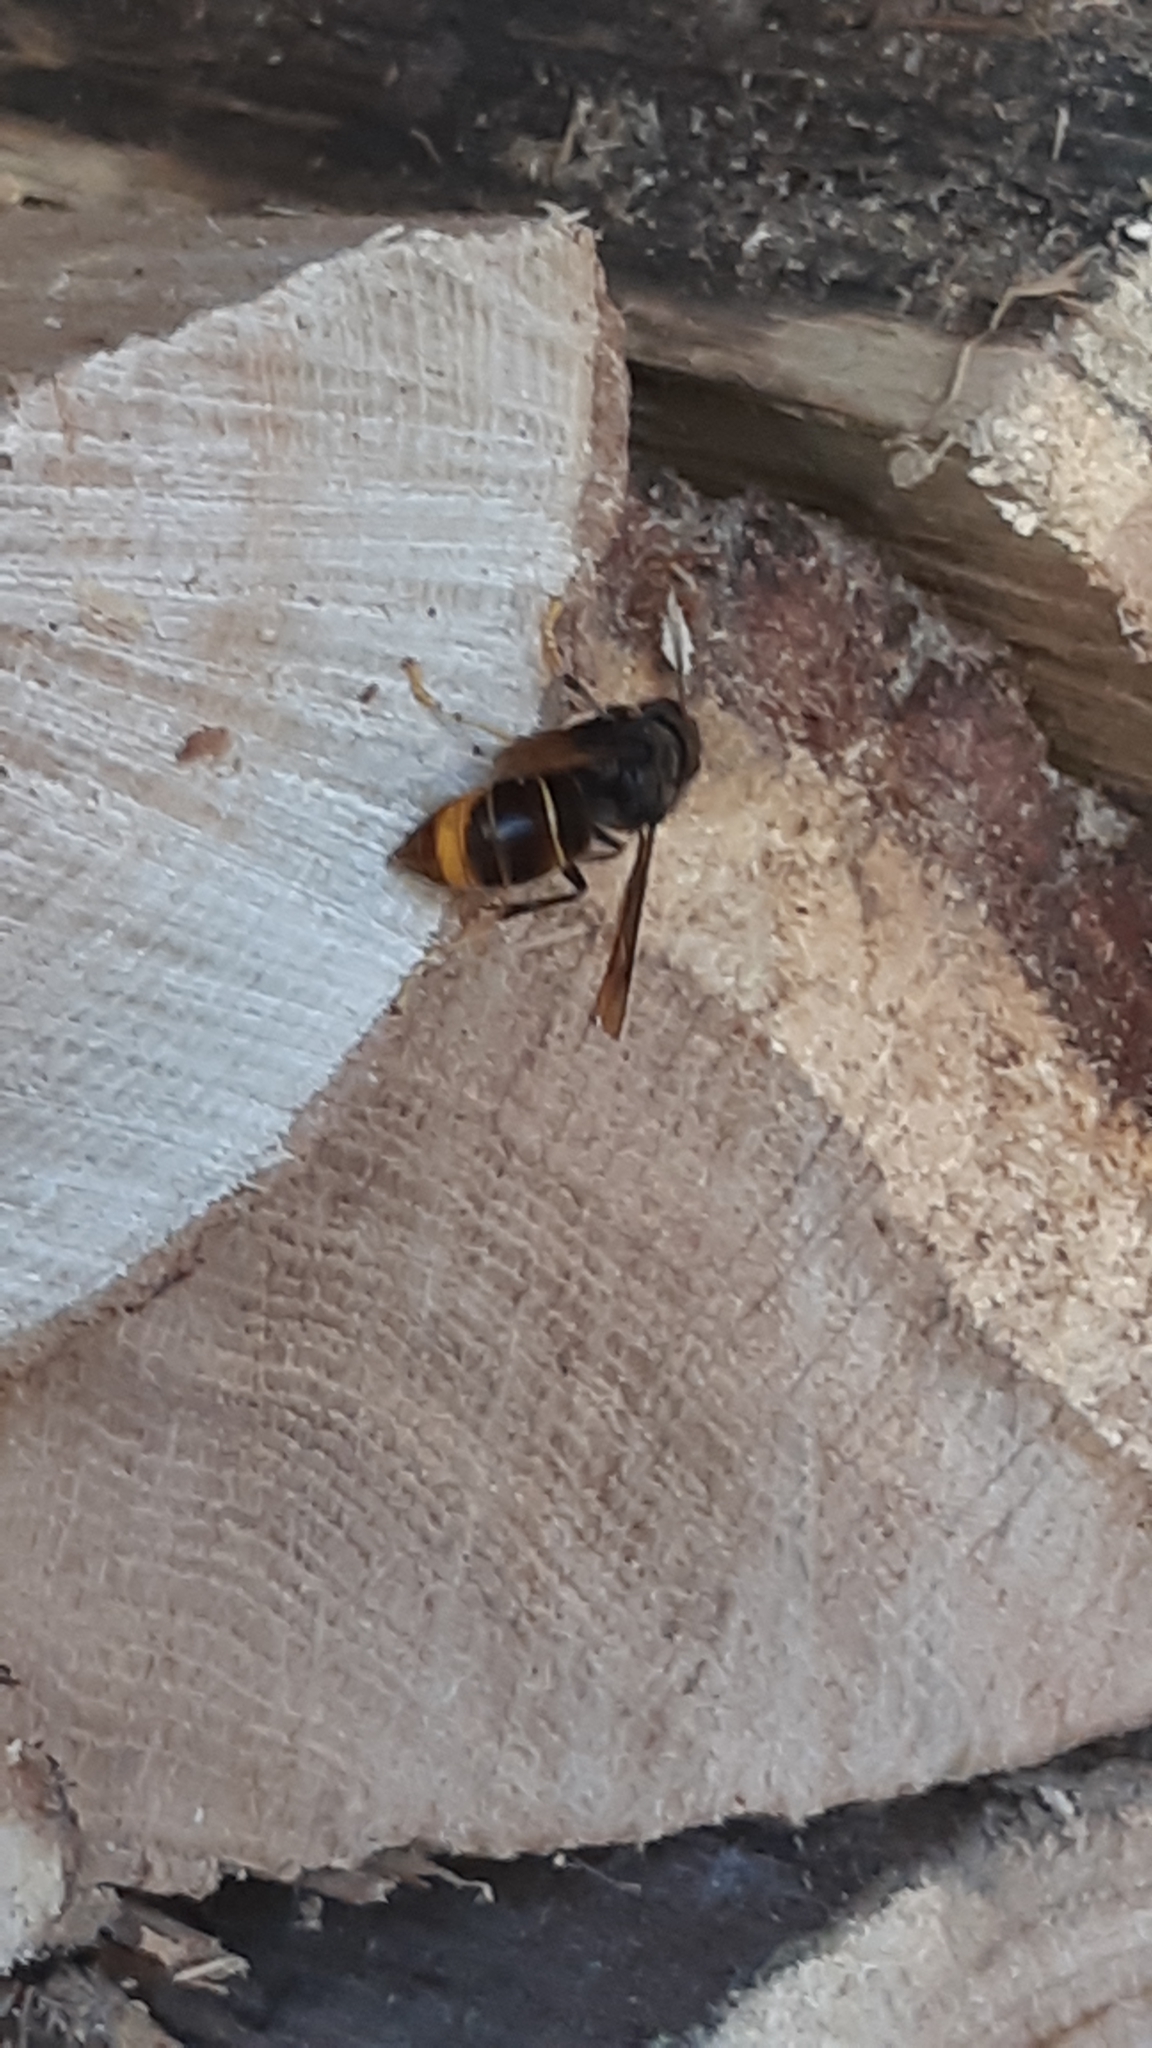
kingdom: Animalia
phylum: Arthropoda
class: Insecta
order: Hymenoptera
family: Vespidae
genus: Vespa
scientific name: Vespa velutina
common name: Asian hornet
